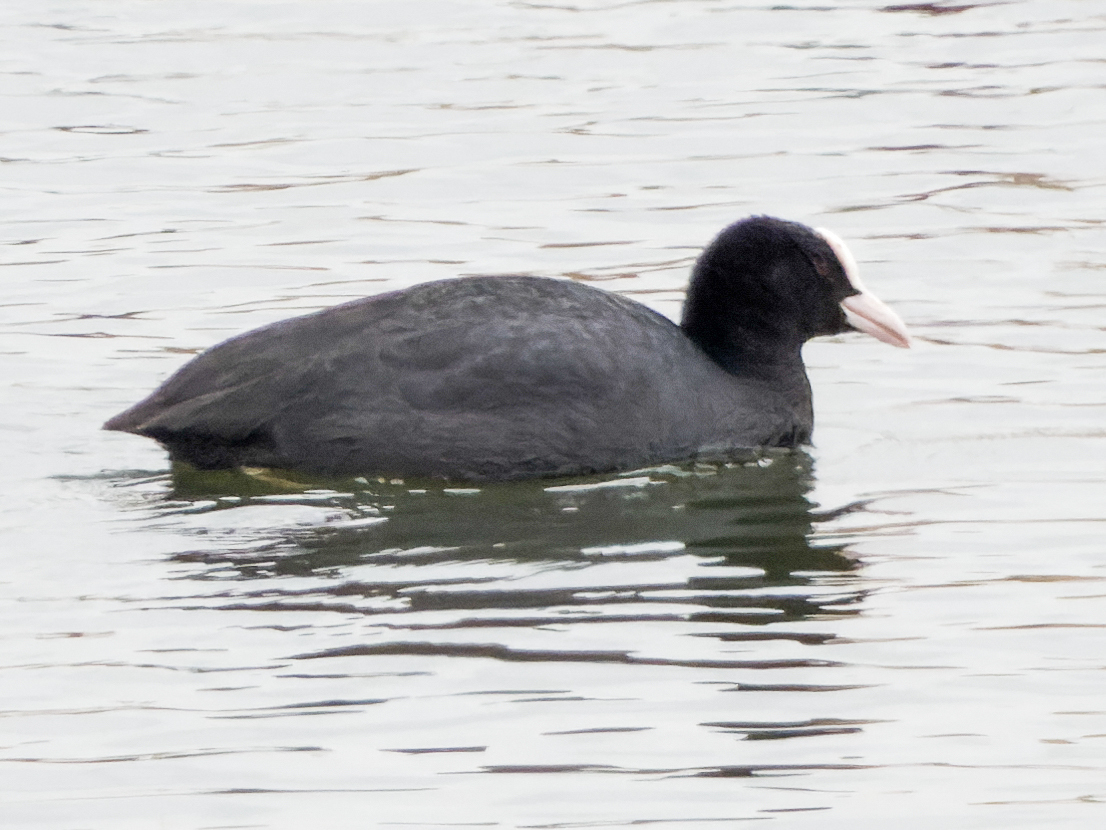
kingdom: Animalia
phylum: Chordata
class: Aves
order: Gruiformes
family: Rallidae
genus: Fulica
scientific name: Fulica atra
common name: Eurasian coot
